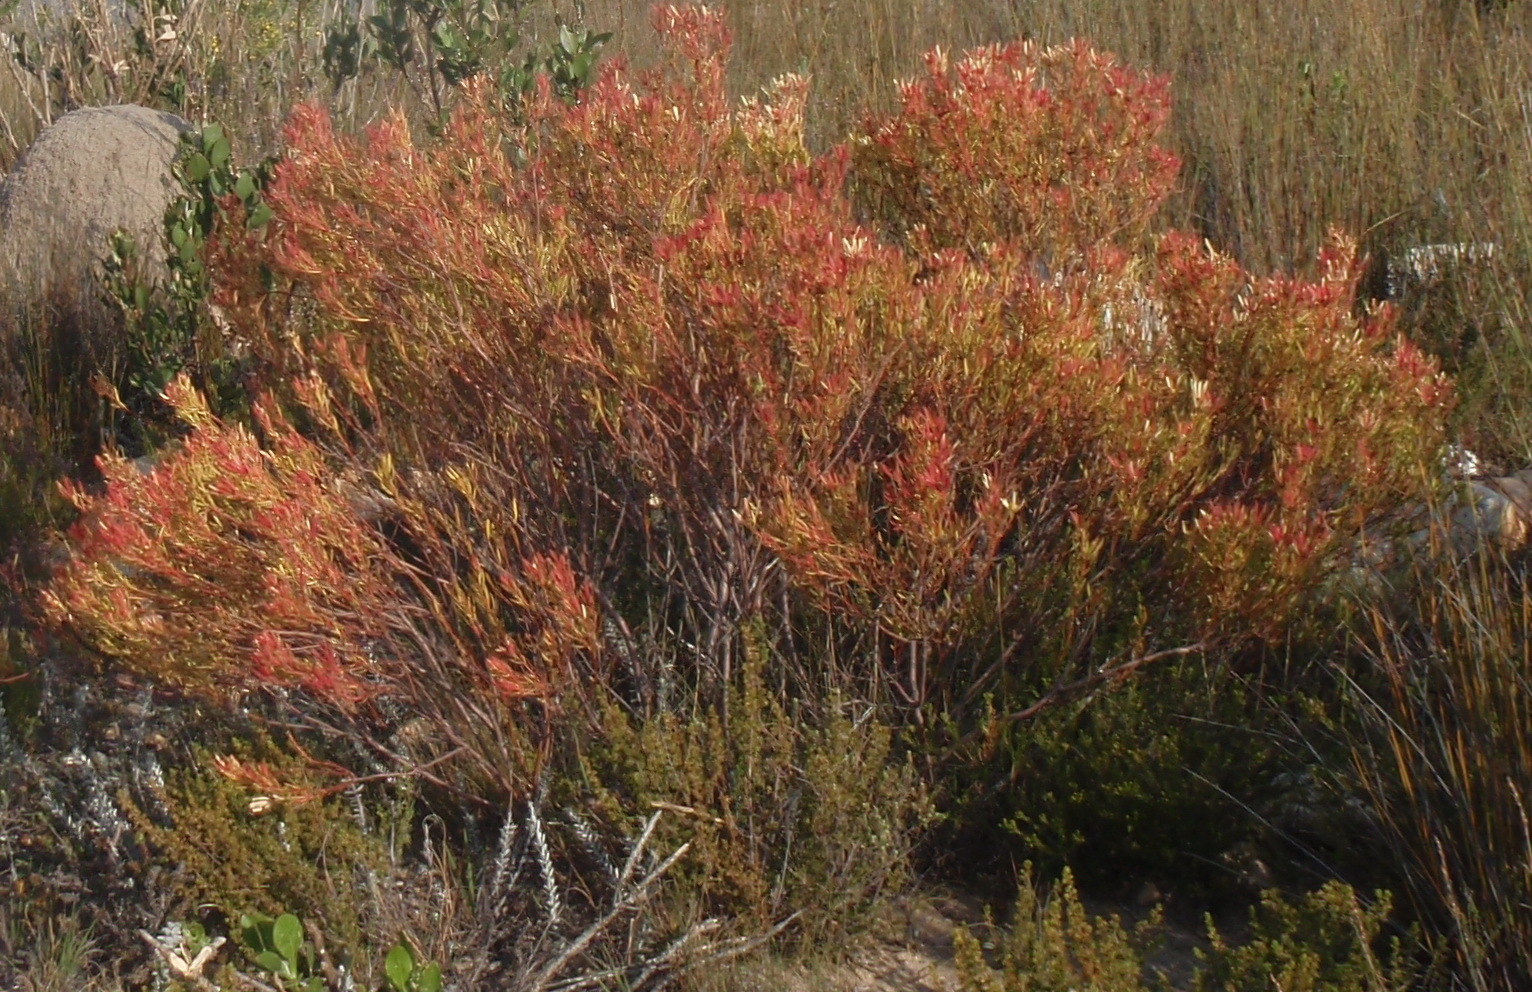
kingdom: Plantae
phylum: Tracheophyta
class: Magnoliopsida
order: Proteales
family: Proteaceae
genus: Leucadendron
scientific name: Leucadendron salignum
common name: Common sunshine conebush
